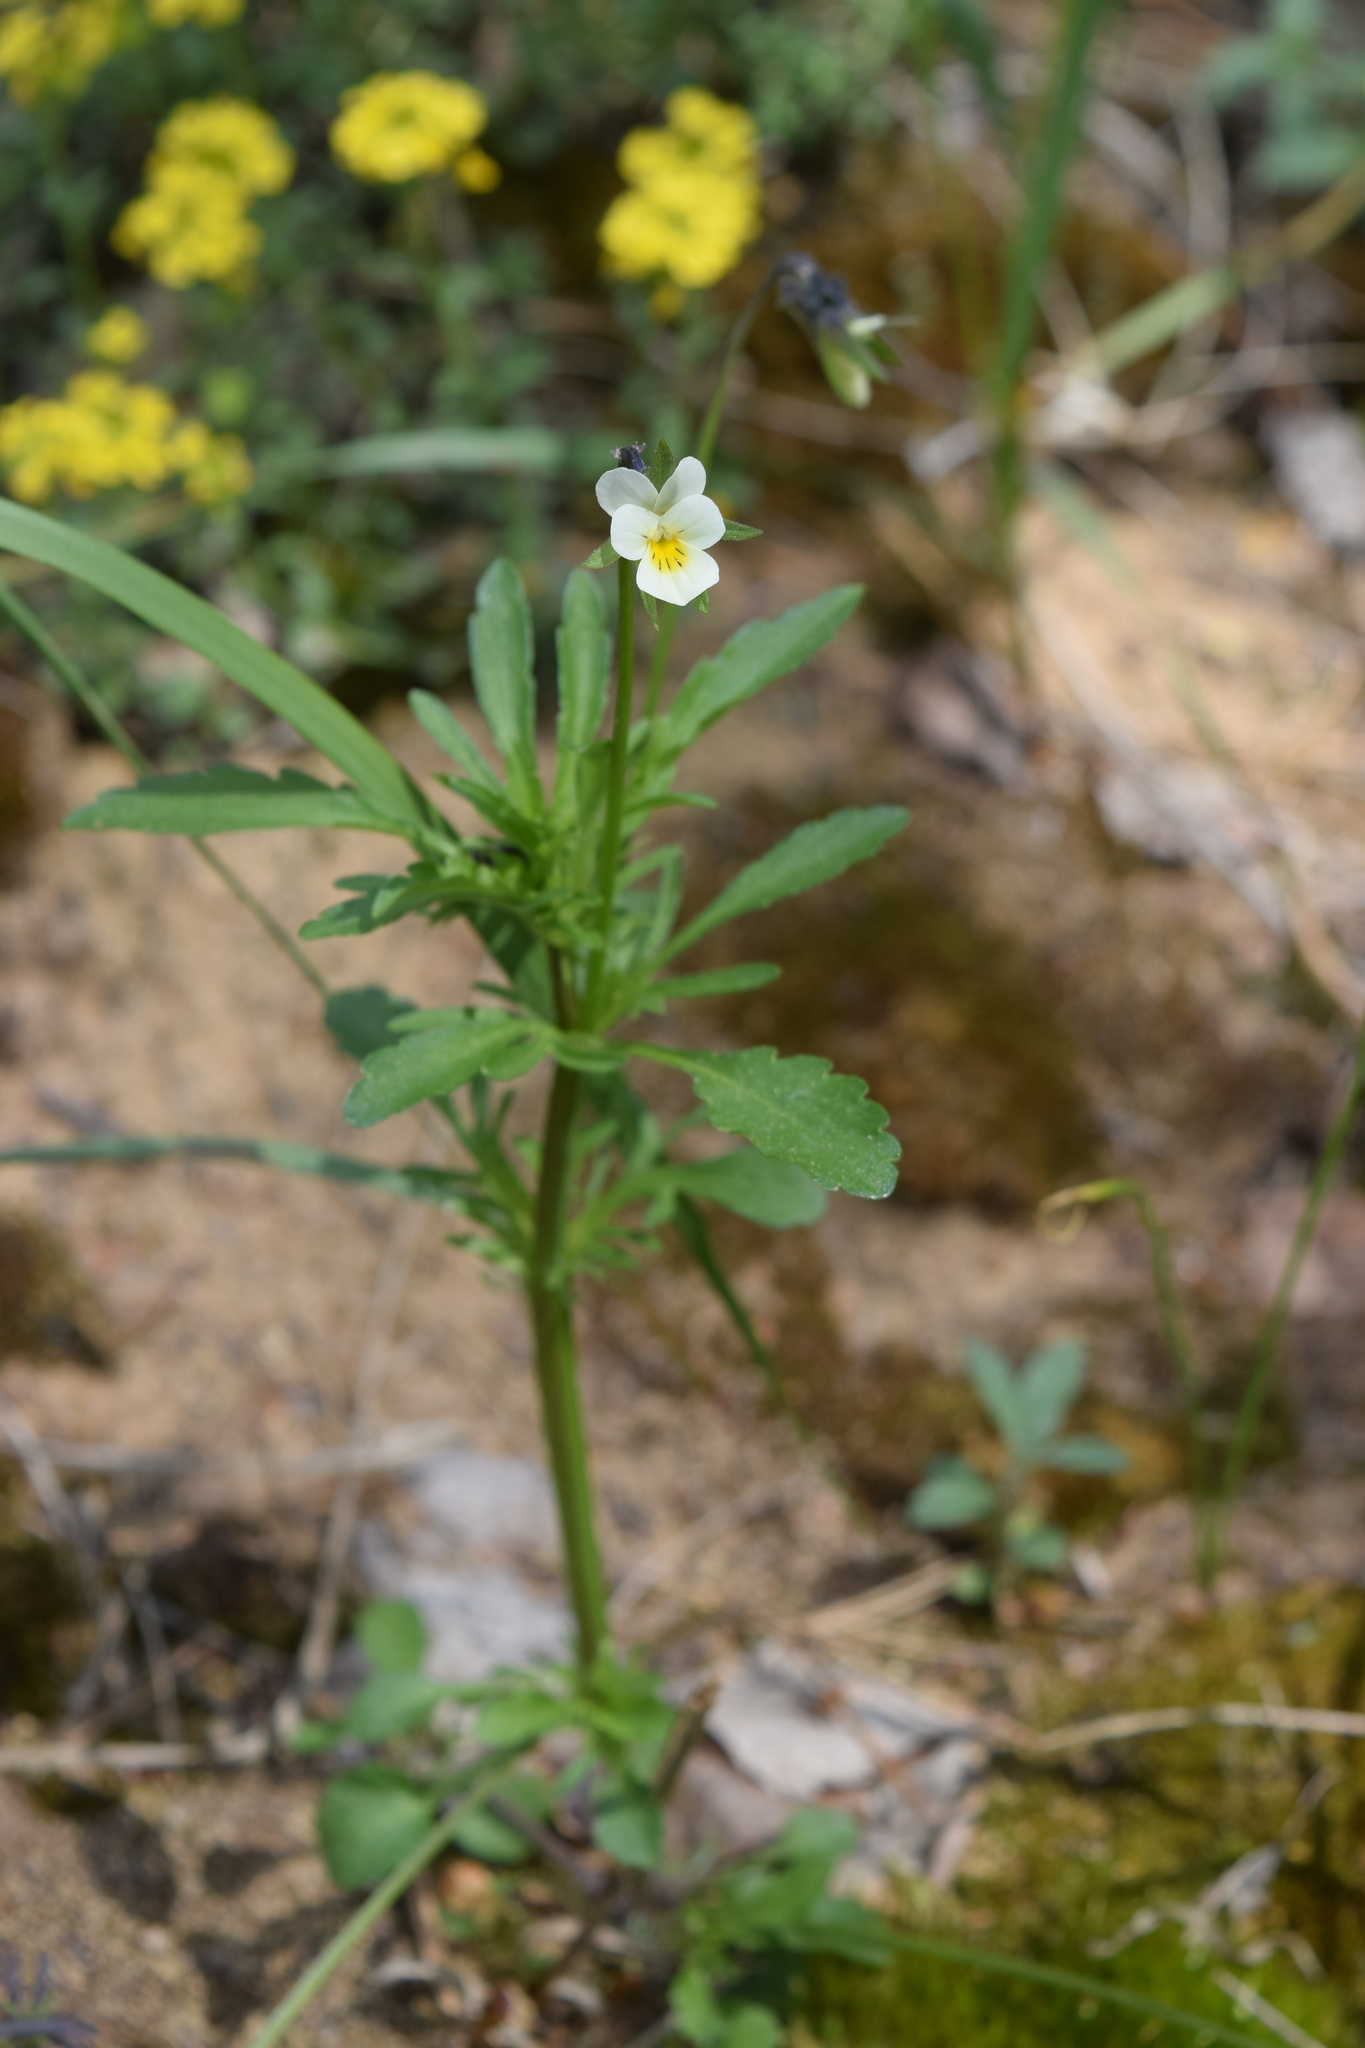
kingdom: Plantae
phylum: Tracheophyta
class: Magnoliopsida
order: Malpighiales
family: Violaceae
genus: Viola
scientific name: Viola arvensis
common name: Field pansy
